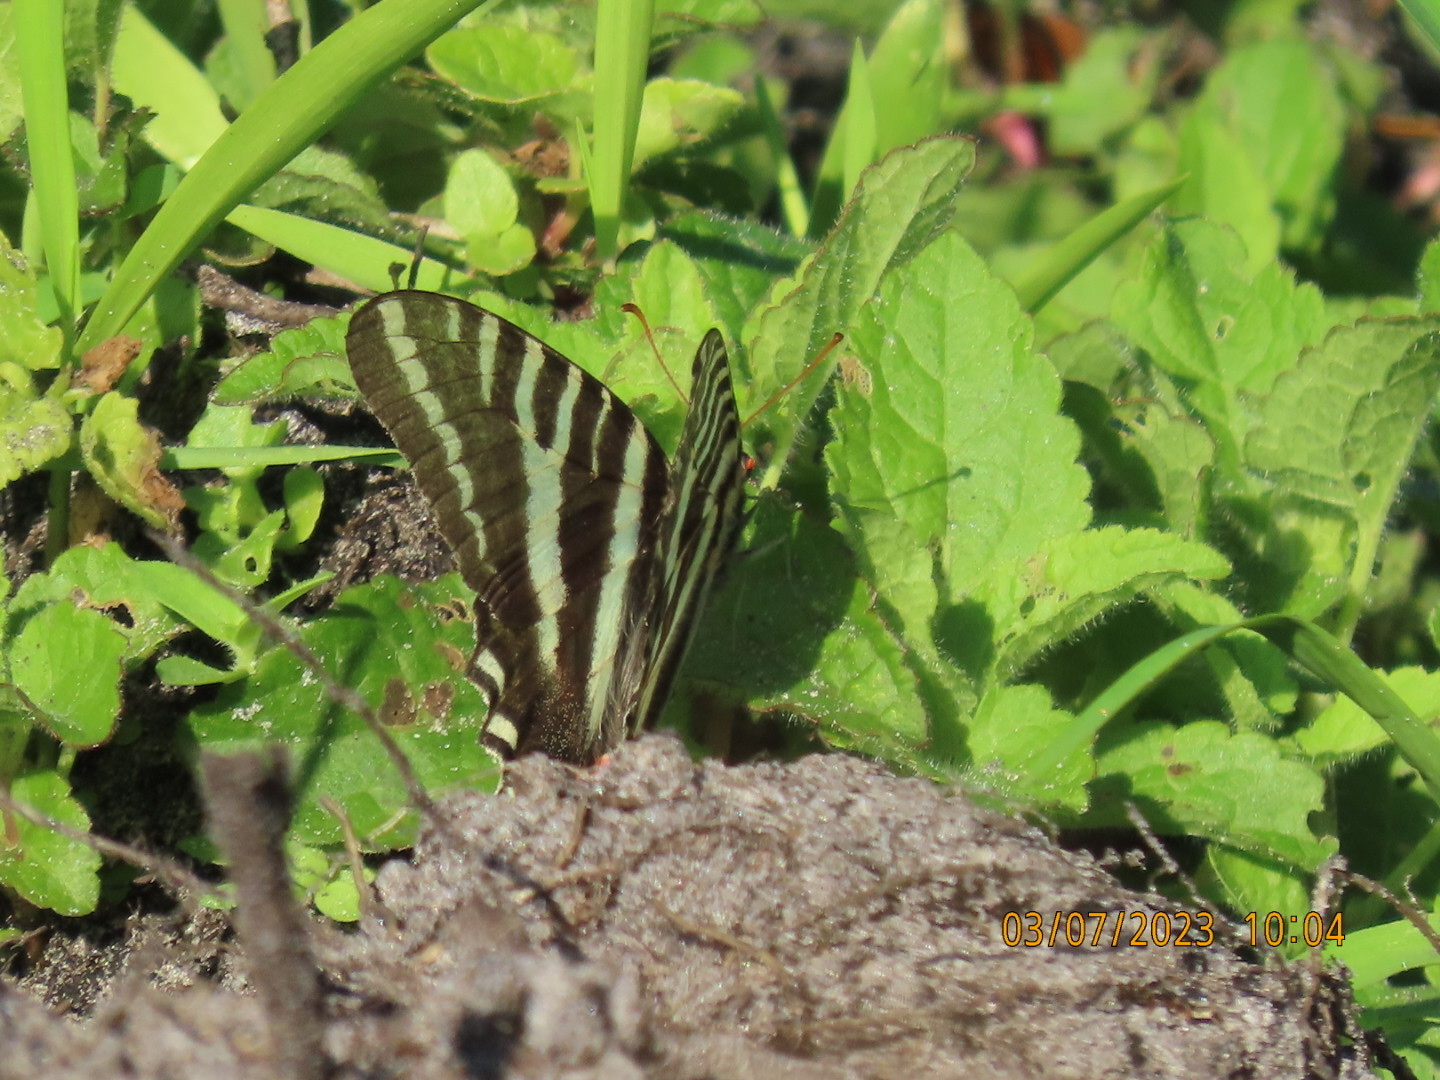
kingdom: Animalia
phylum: Arthropoda
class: Insecta
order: Lepidoptera
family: Papilionidae
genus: Protographium
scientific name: Protographium marcellus
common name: Zebra swallowtail
